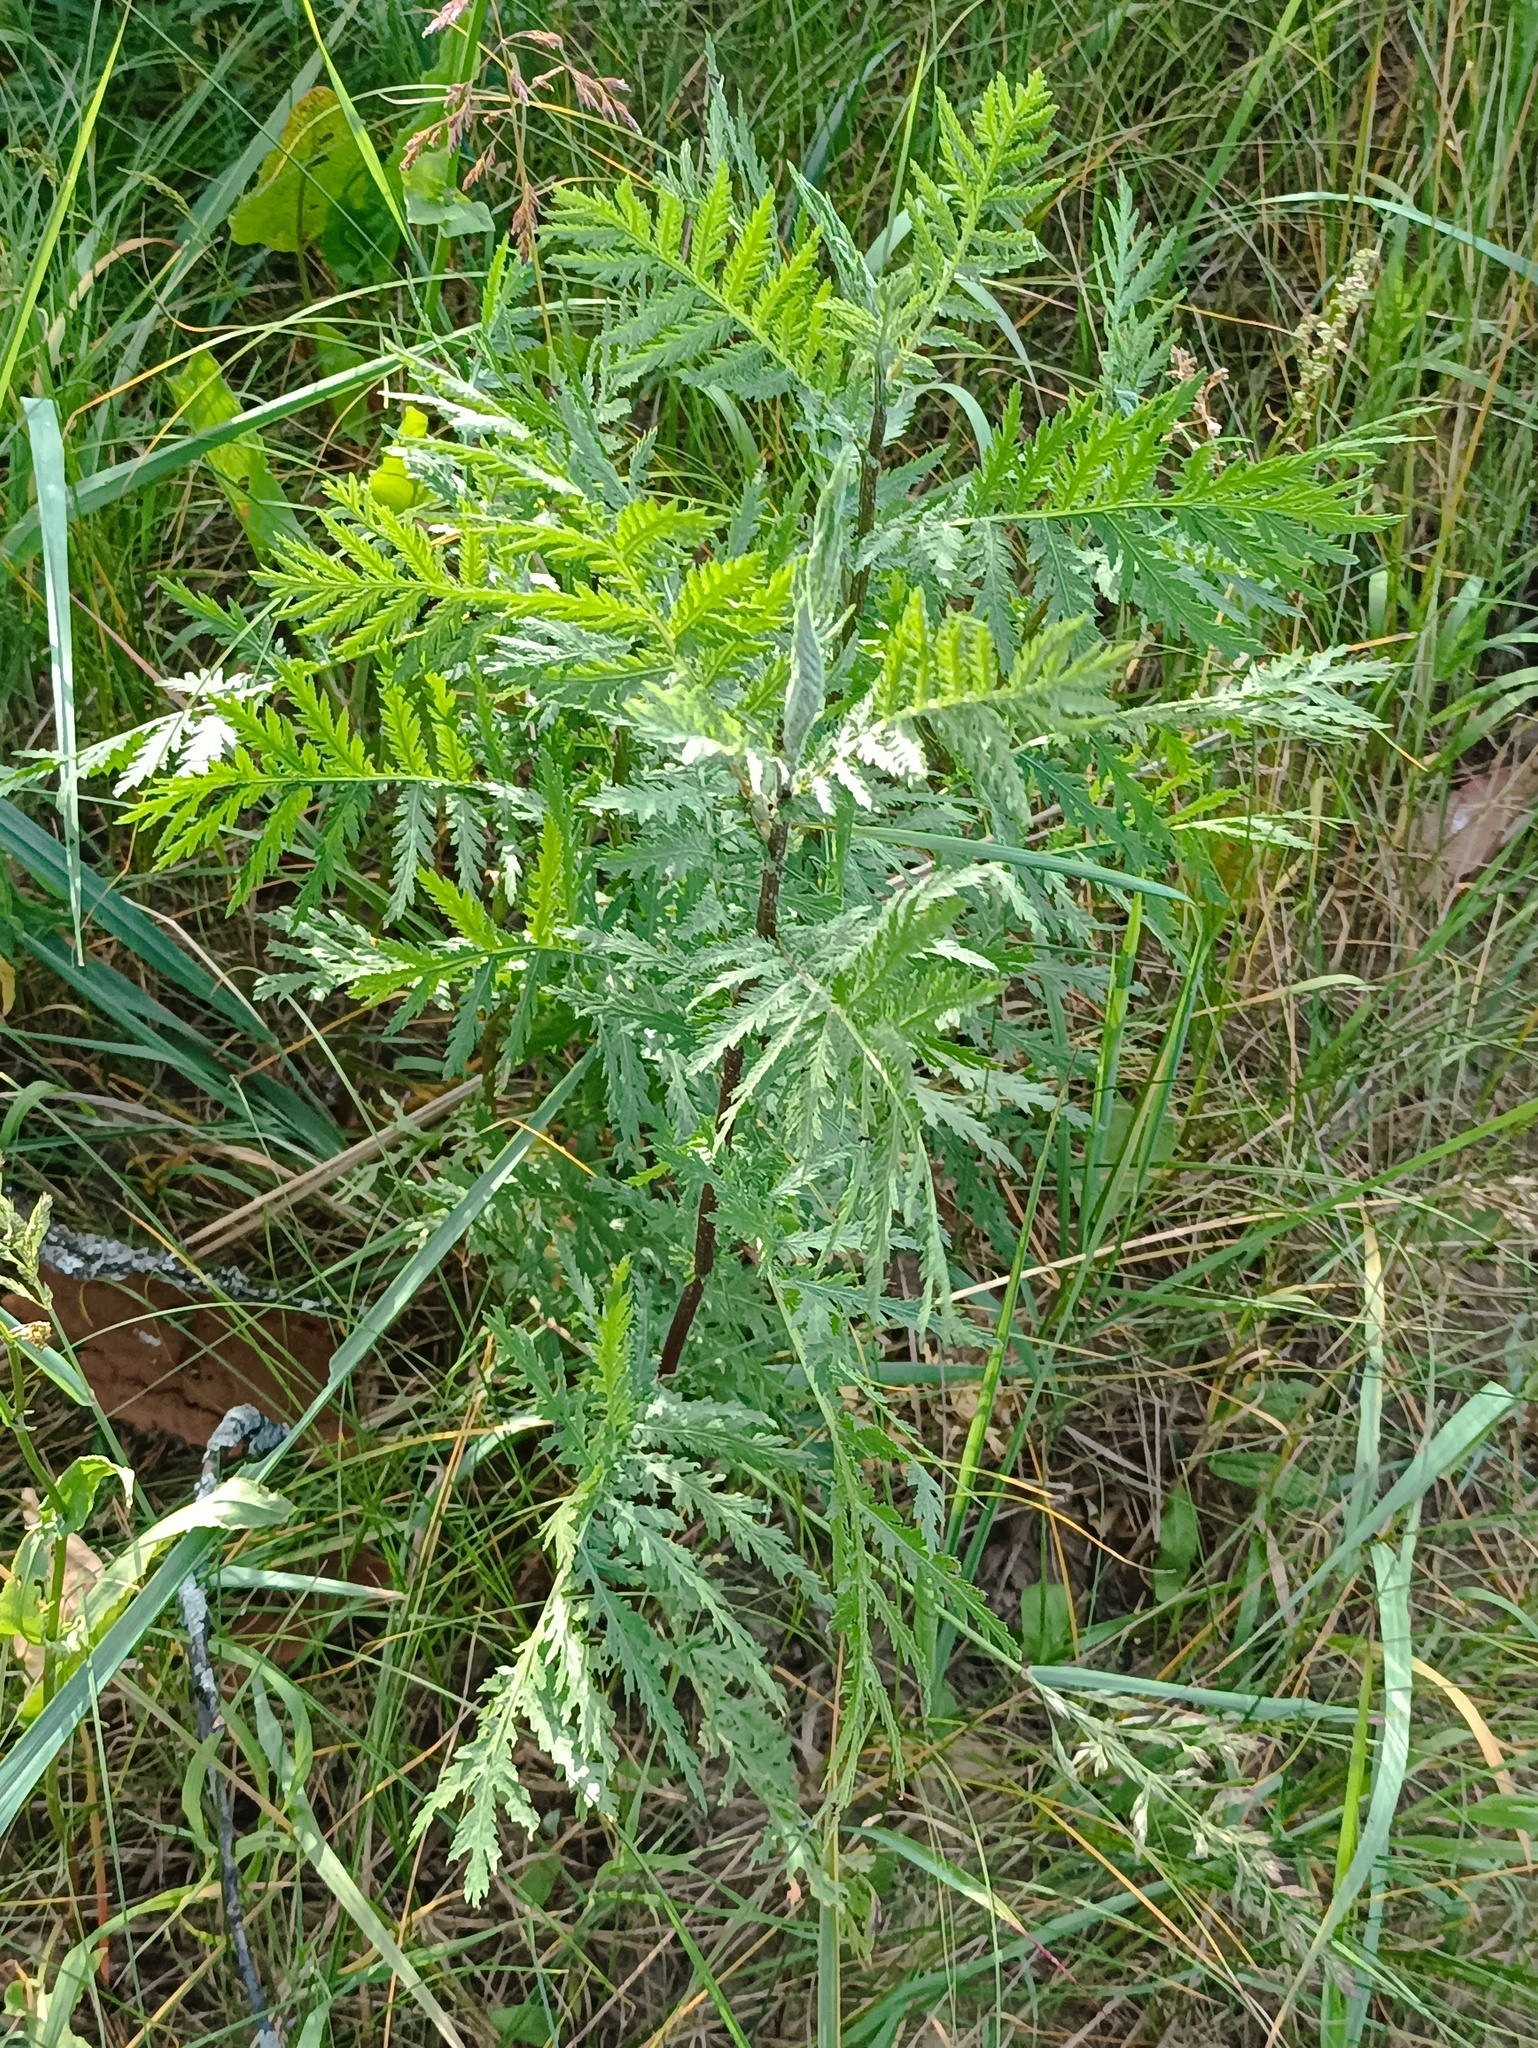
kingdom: Plantae
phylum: Tracheophyta
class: Magnoliopsida
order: Asterales
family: Asteraceae
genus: Tanacetum
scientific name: Tanacetum vulgare
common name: Common tansy
